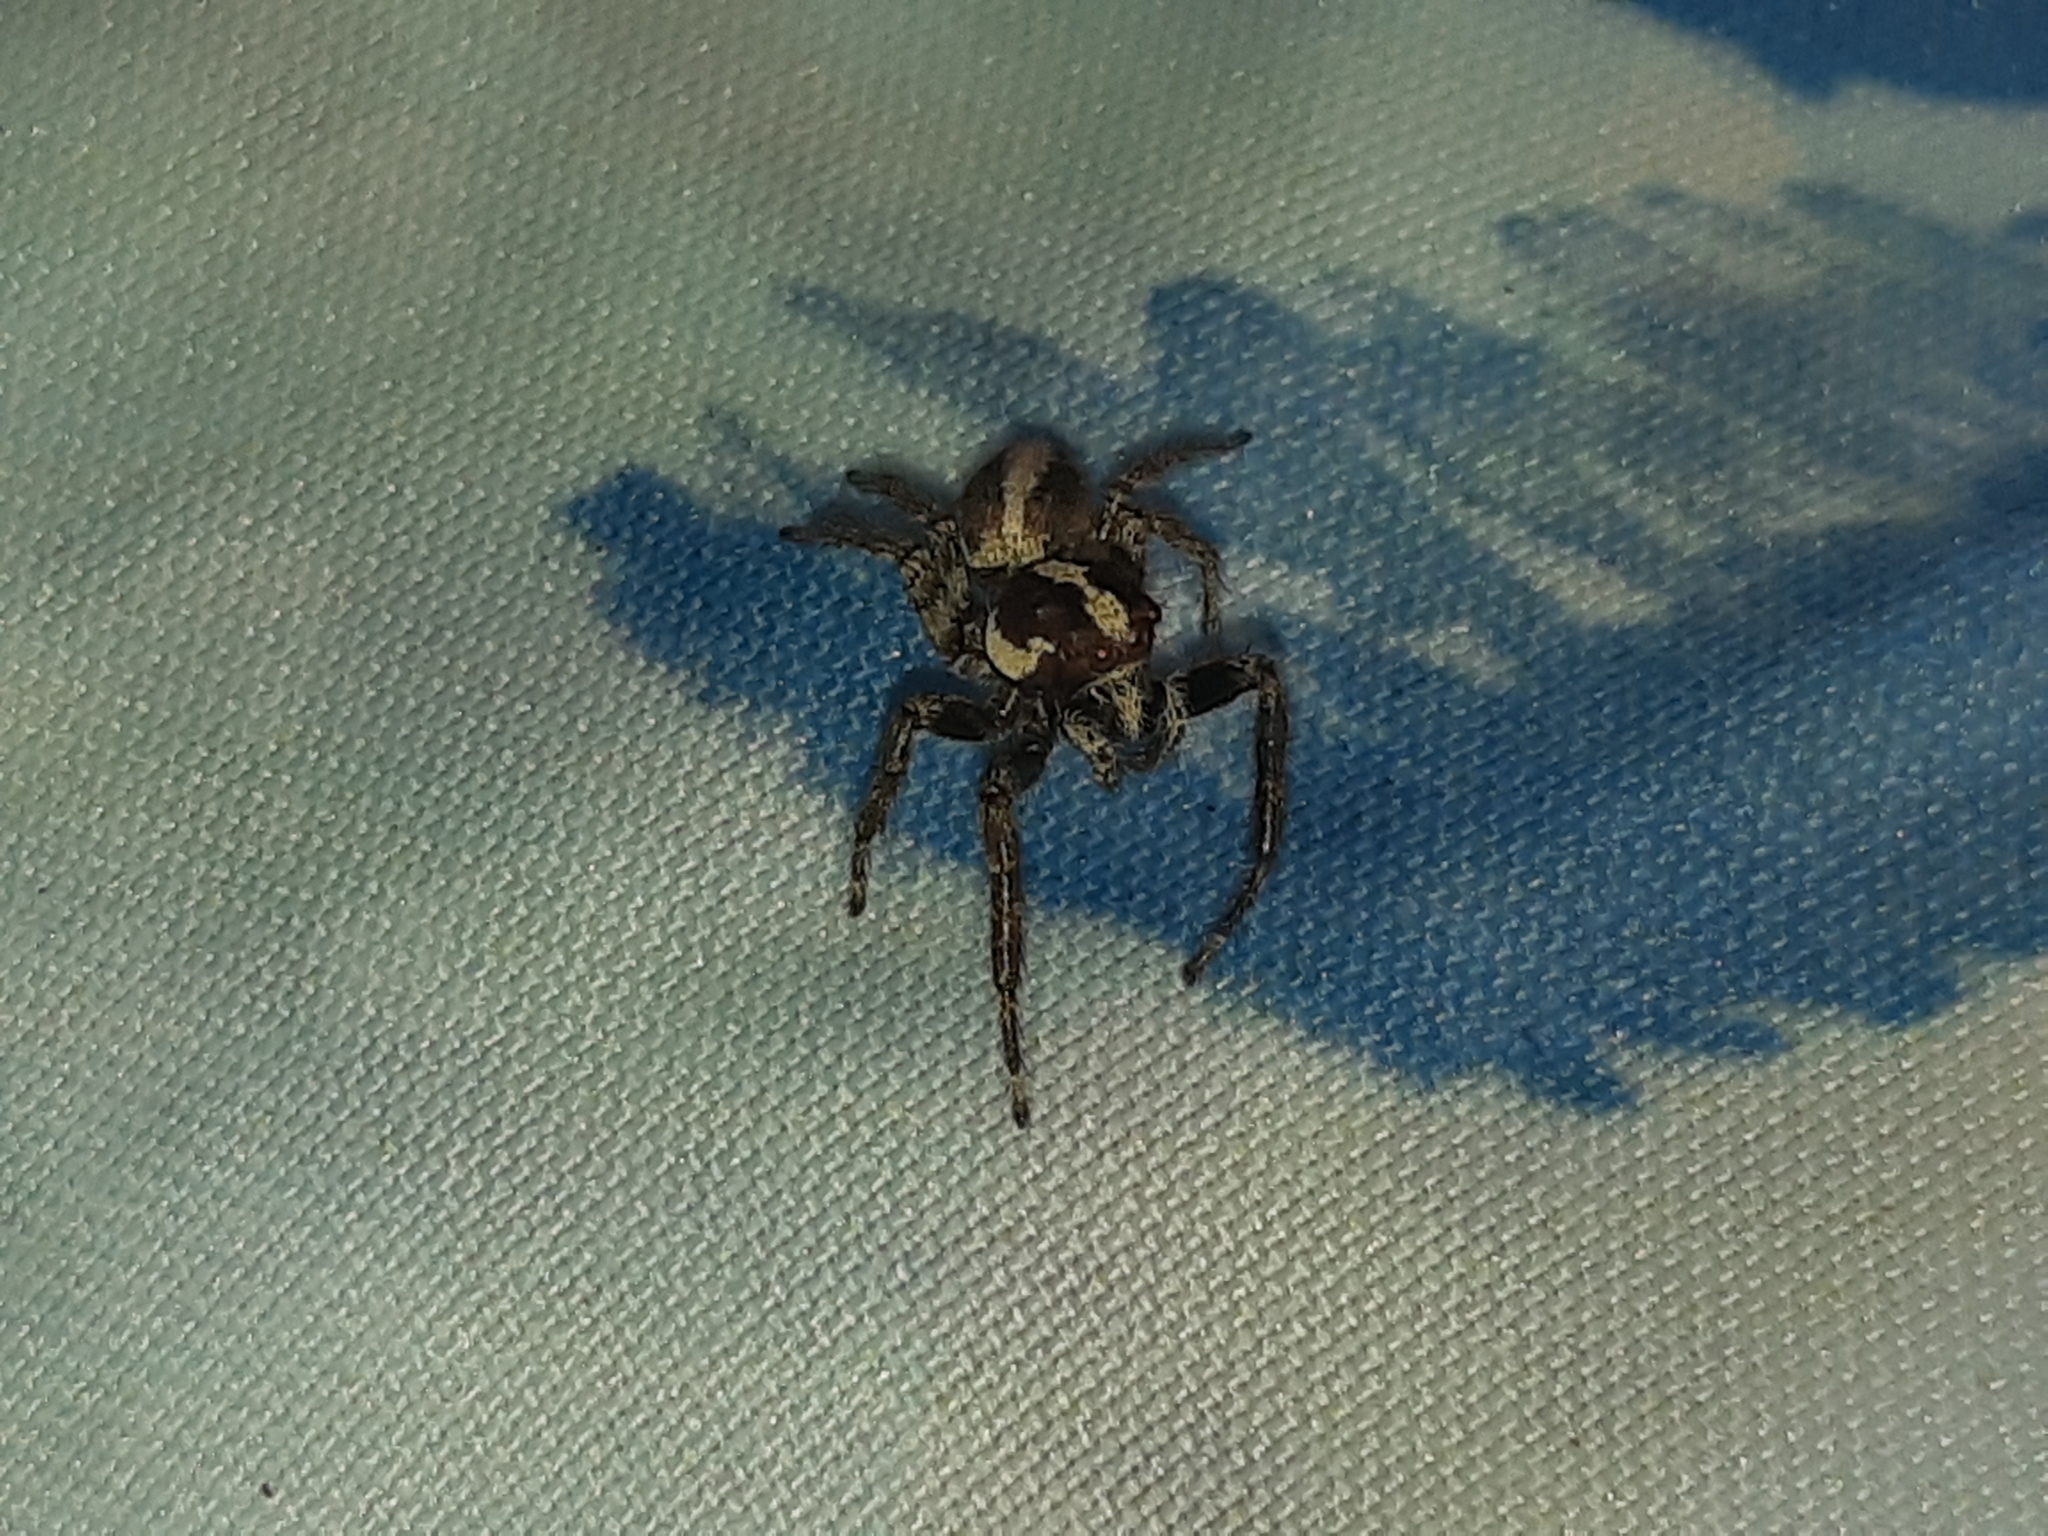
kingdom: Animalia
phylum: Arthropoda
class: Arachnida
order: Araneae
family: Salticidae
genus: Frigga
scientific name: Frigga crocuta
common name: Jumping spiders
